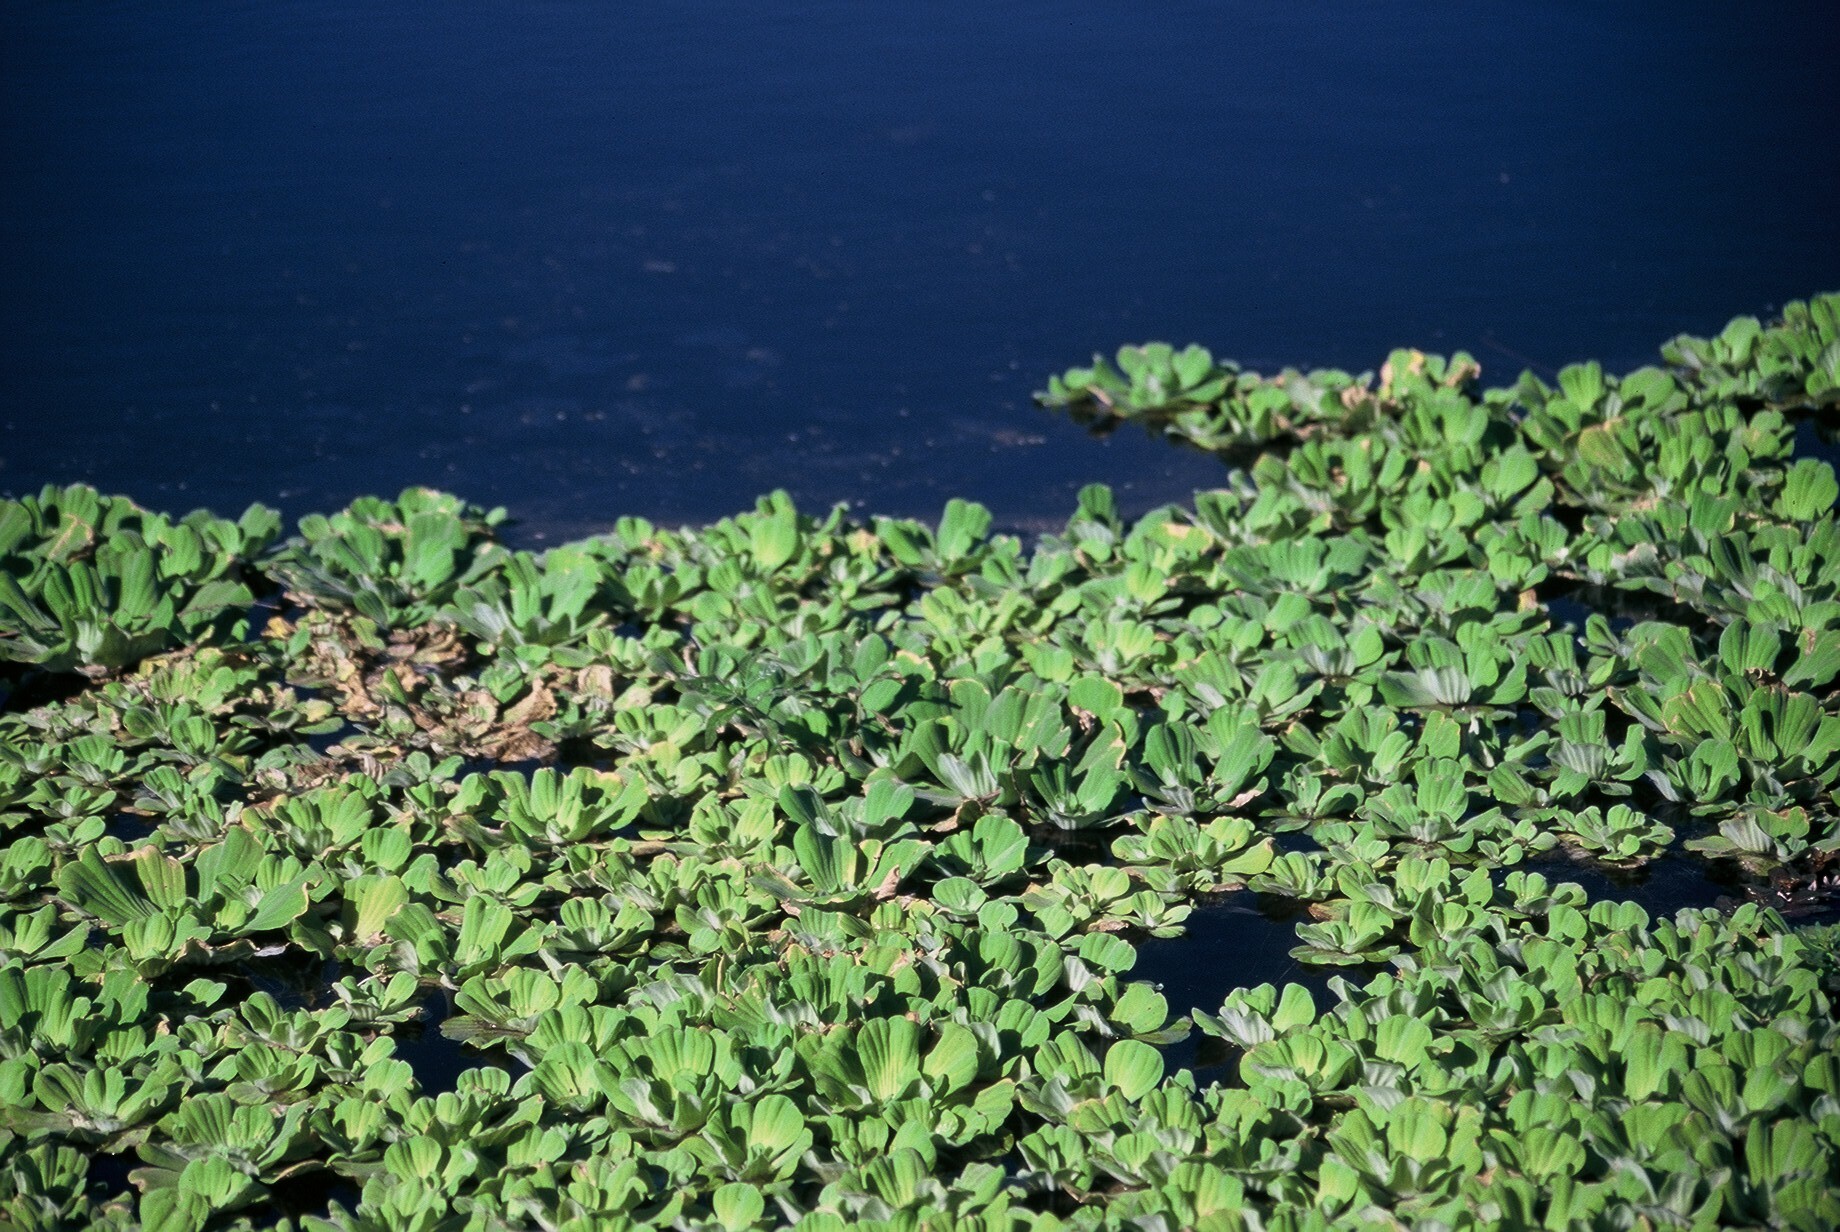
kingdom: Plantae
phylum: Tracheophyta
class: Liliopsida
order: Alismatales
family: Araceae
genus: Pistia
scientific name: Pistia stratiotes
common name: Water lettuce
